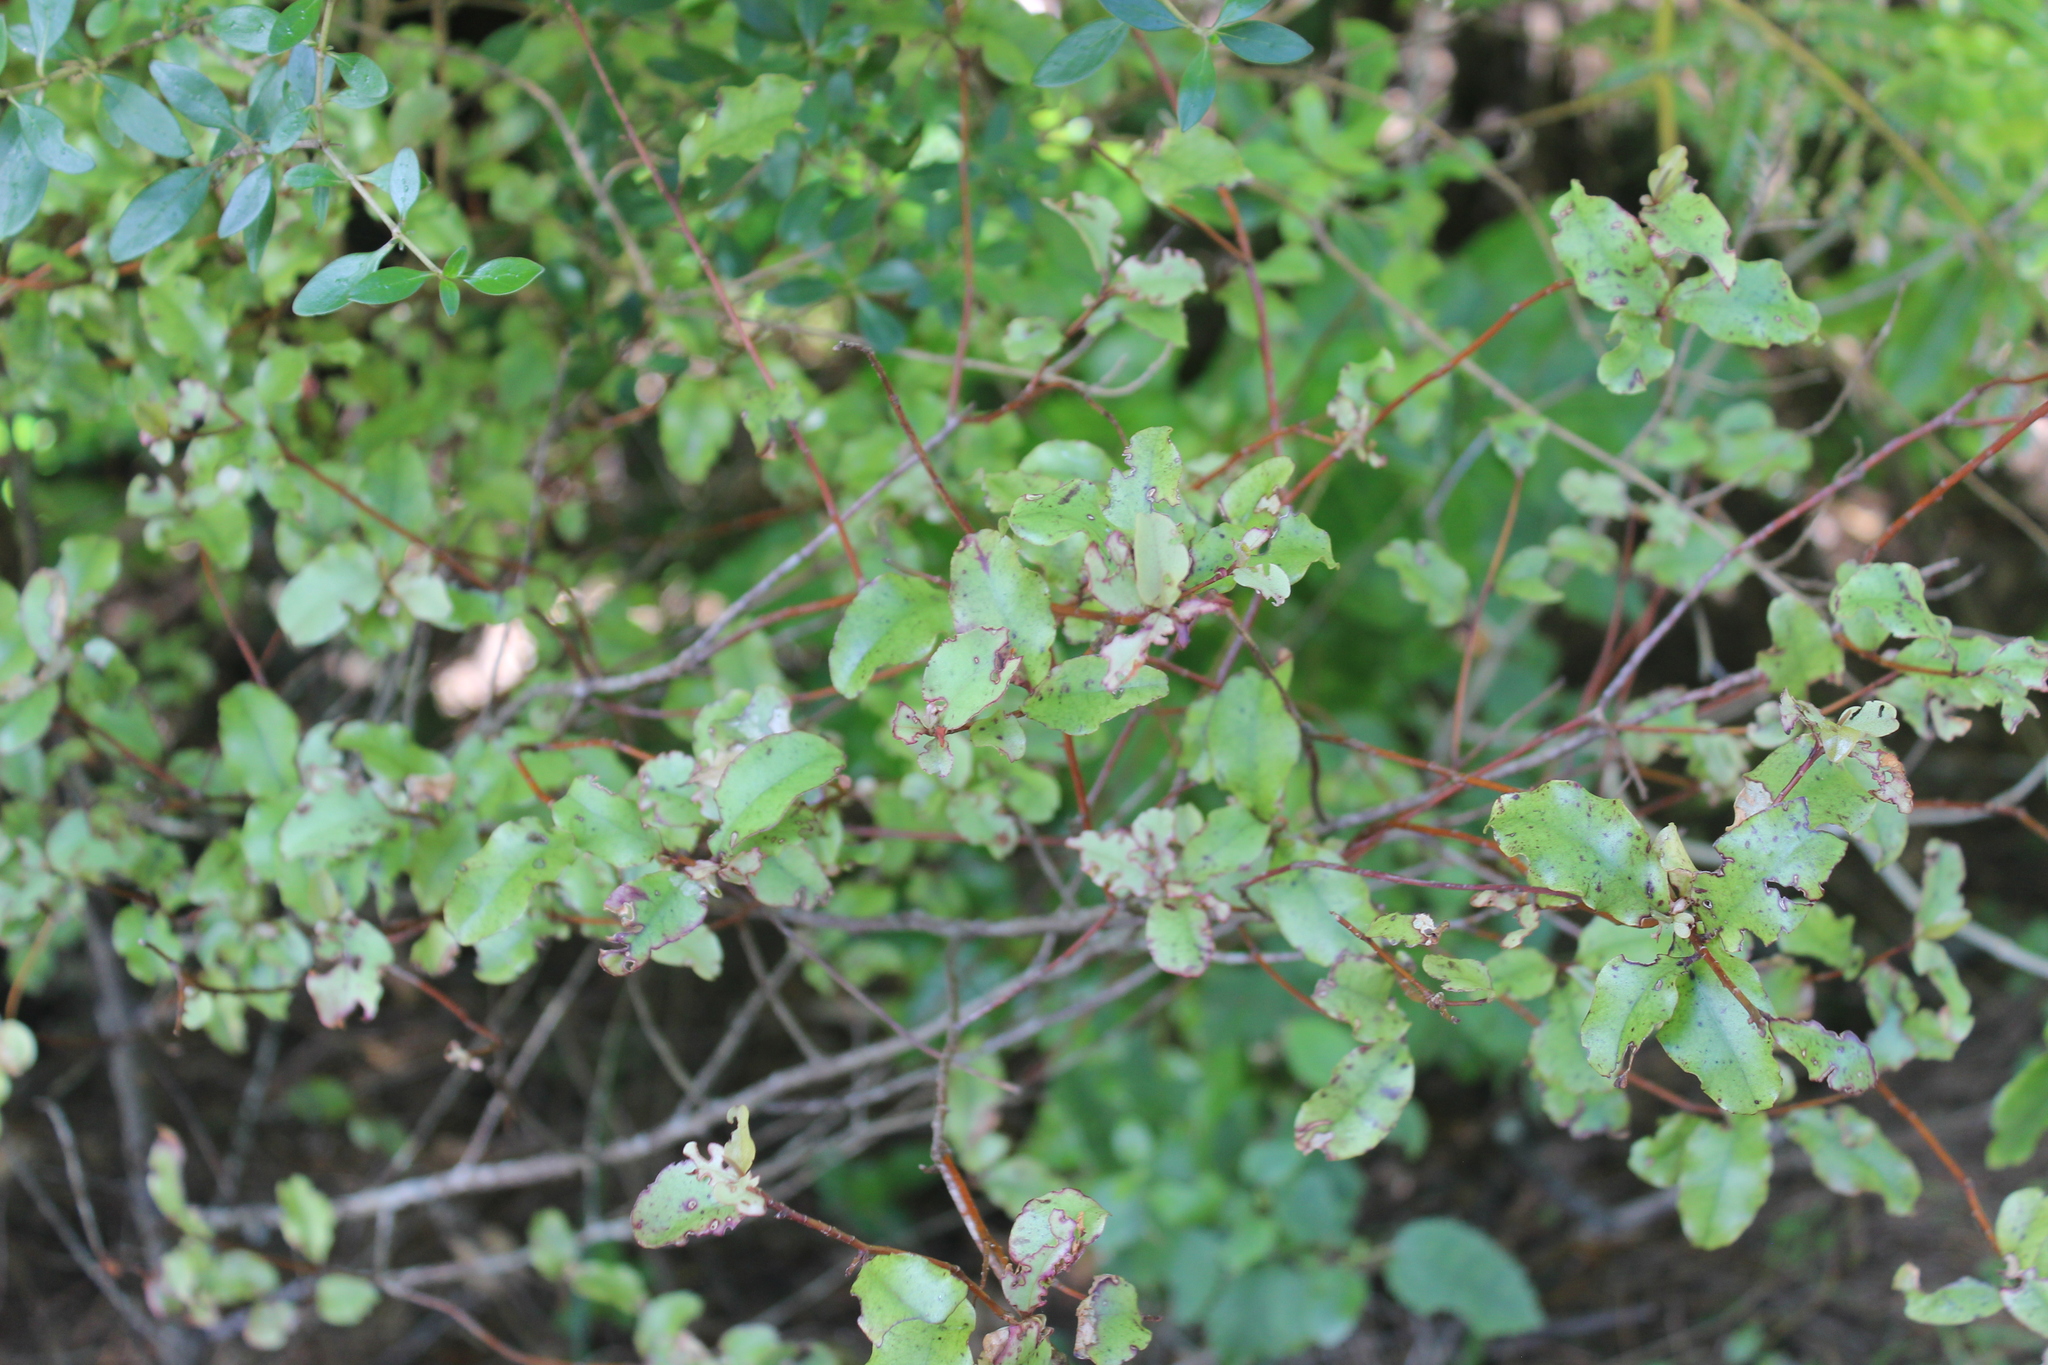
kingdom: Plantae
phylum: Tracheophyta
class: Magnoliopsida
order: Ericales
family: Primulaceae
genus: Myrsine
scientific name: Myrsine australis
